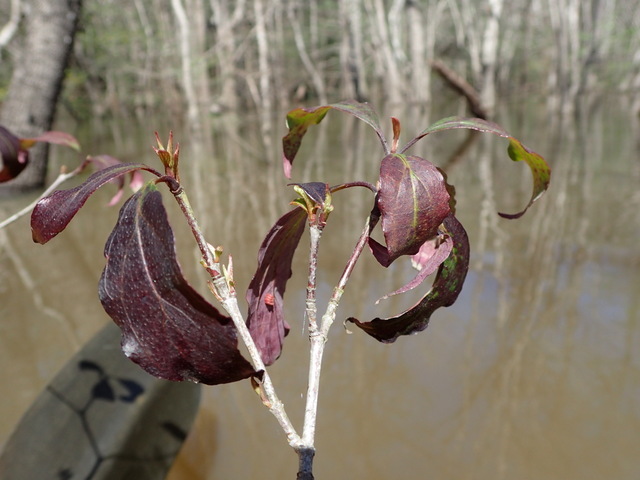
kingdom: Plantae
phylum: Tracheophyta
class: Magnoliopsida
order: Cornales
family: Cornaceae
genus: Cornus
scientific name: Cornus foemina
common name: Swamp dogwood
